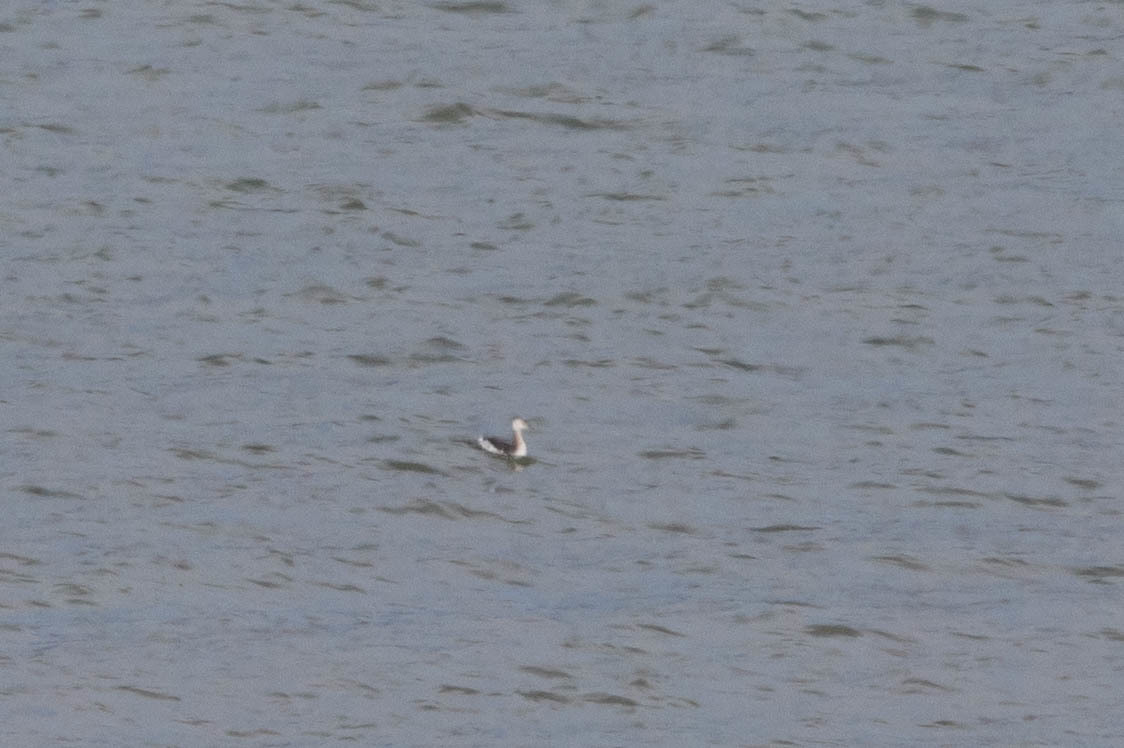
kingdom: Animalia
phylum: Chordata
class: Aves
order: Podicipediformes
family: Podicipedidae
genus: Podiceps
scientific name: Podiceps grisegena
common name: Red-necked grebe
